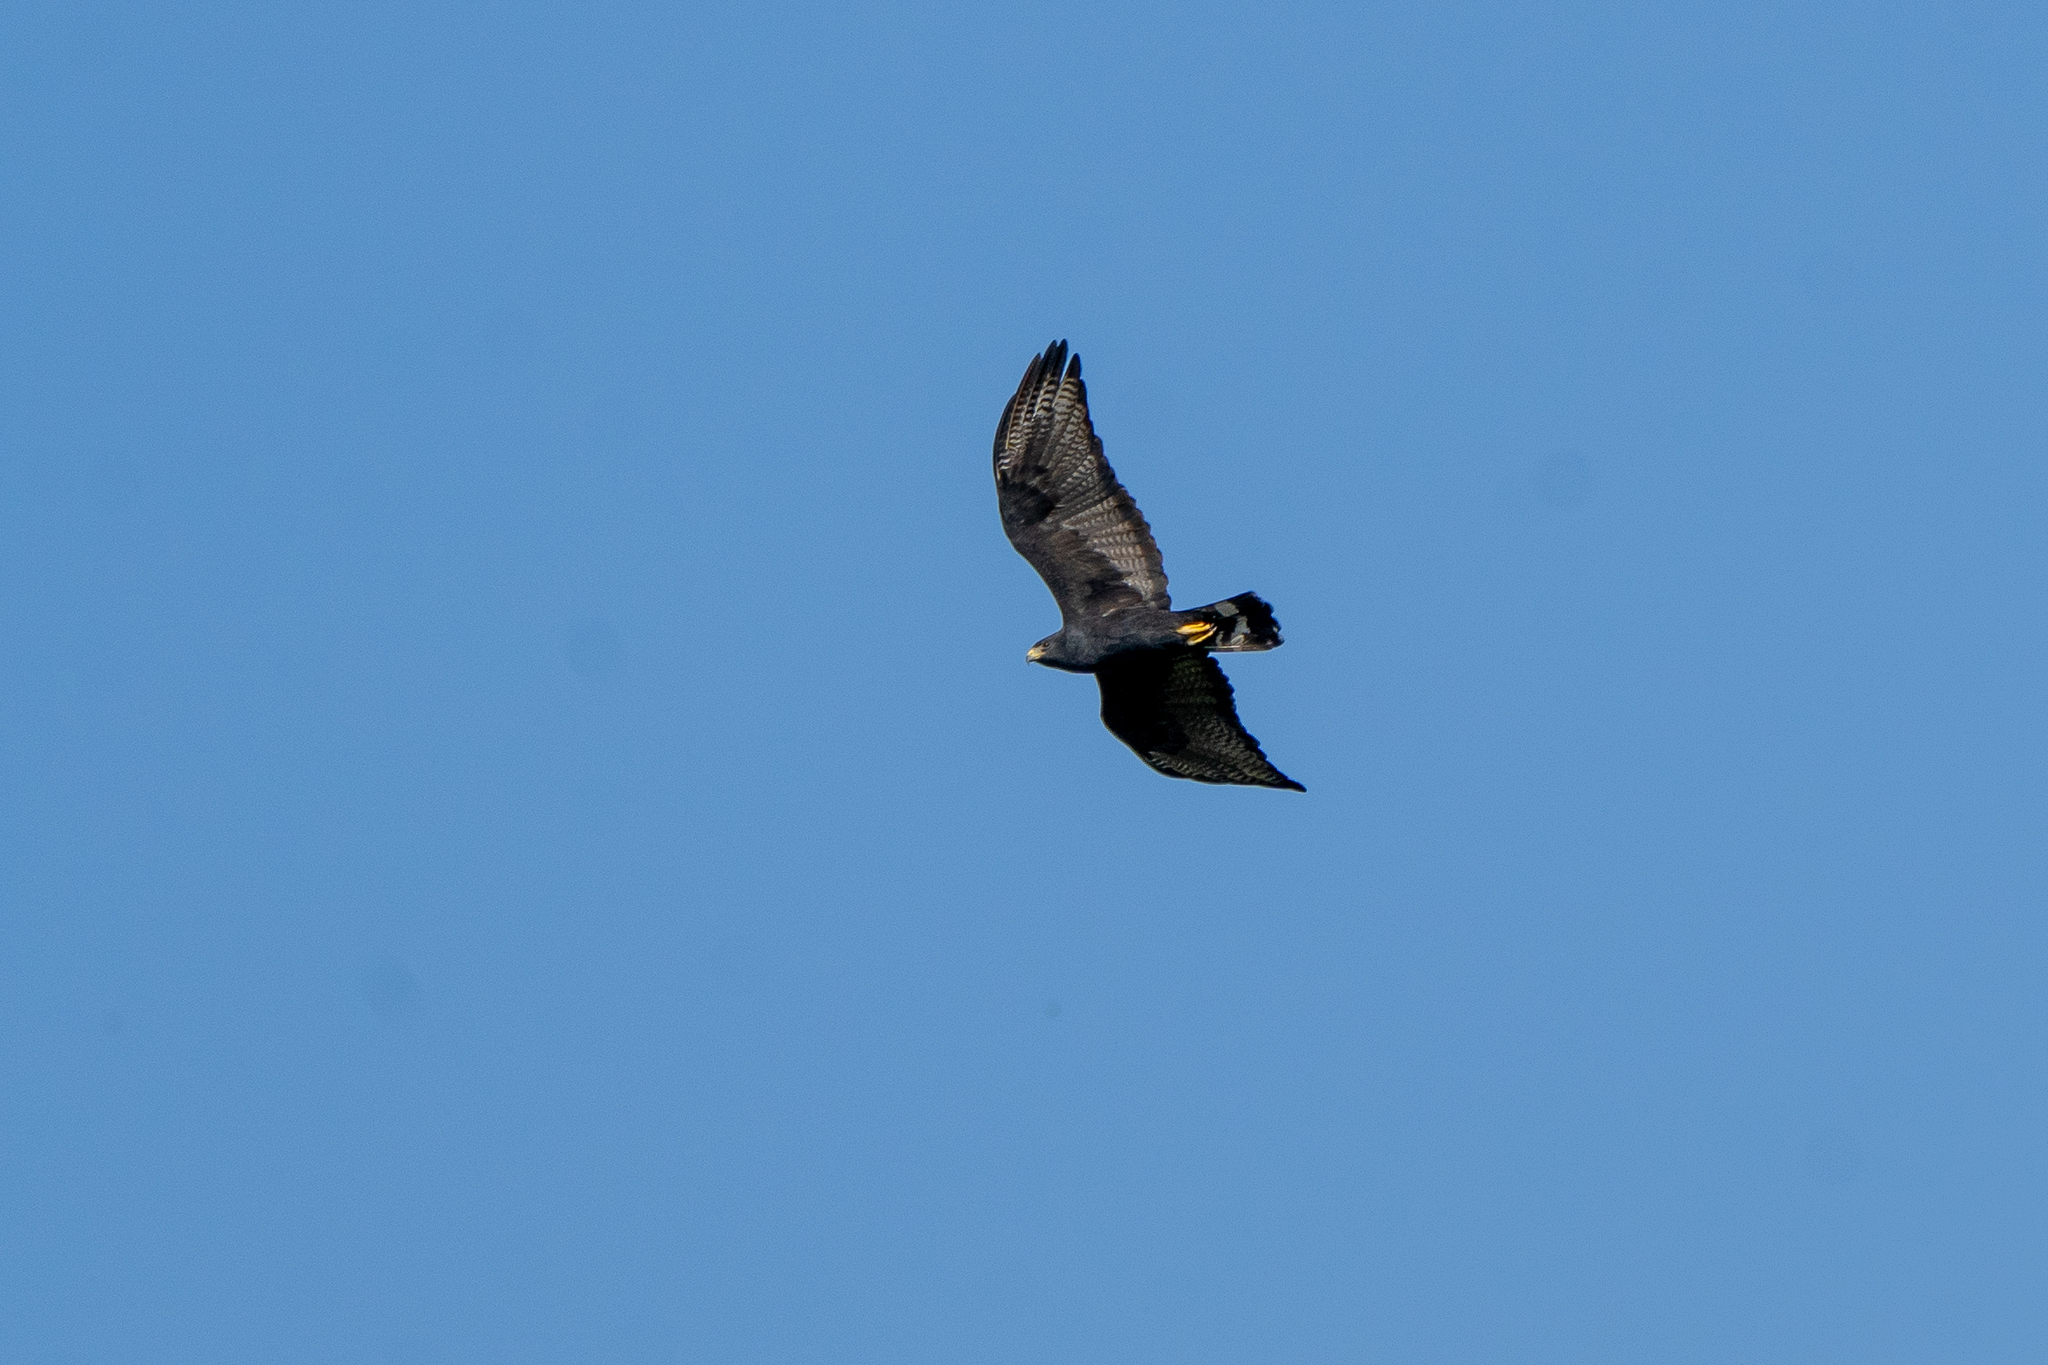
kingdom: Animalia
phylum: Chordata
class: Aves
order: Accipitriformes
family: Accipitridae
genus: Buteo
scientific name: Buteo albonotatus
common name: Zone-tailed hawk
